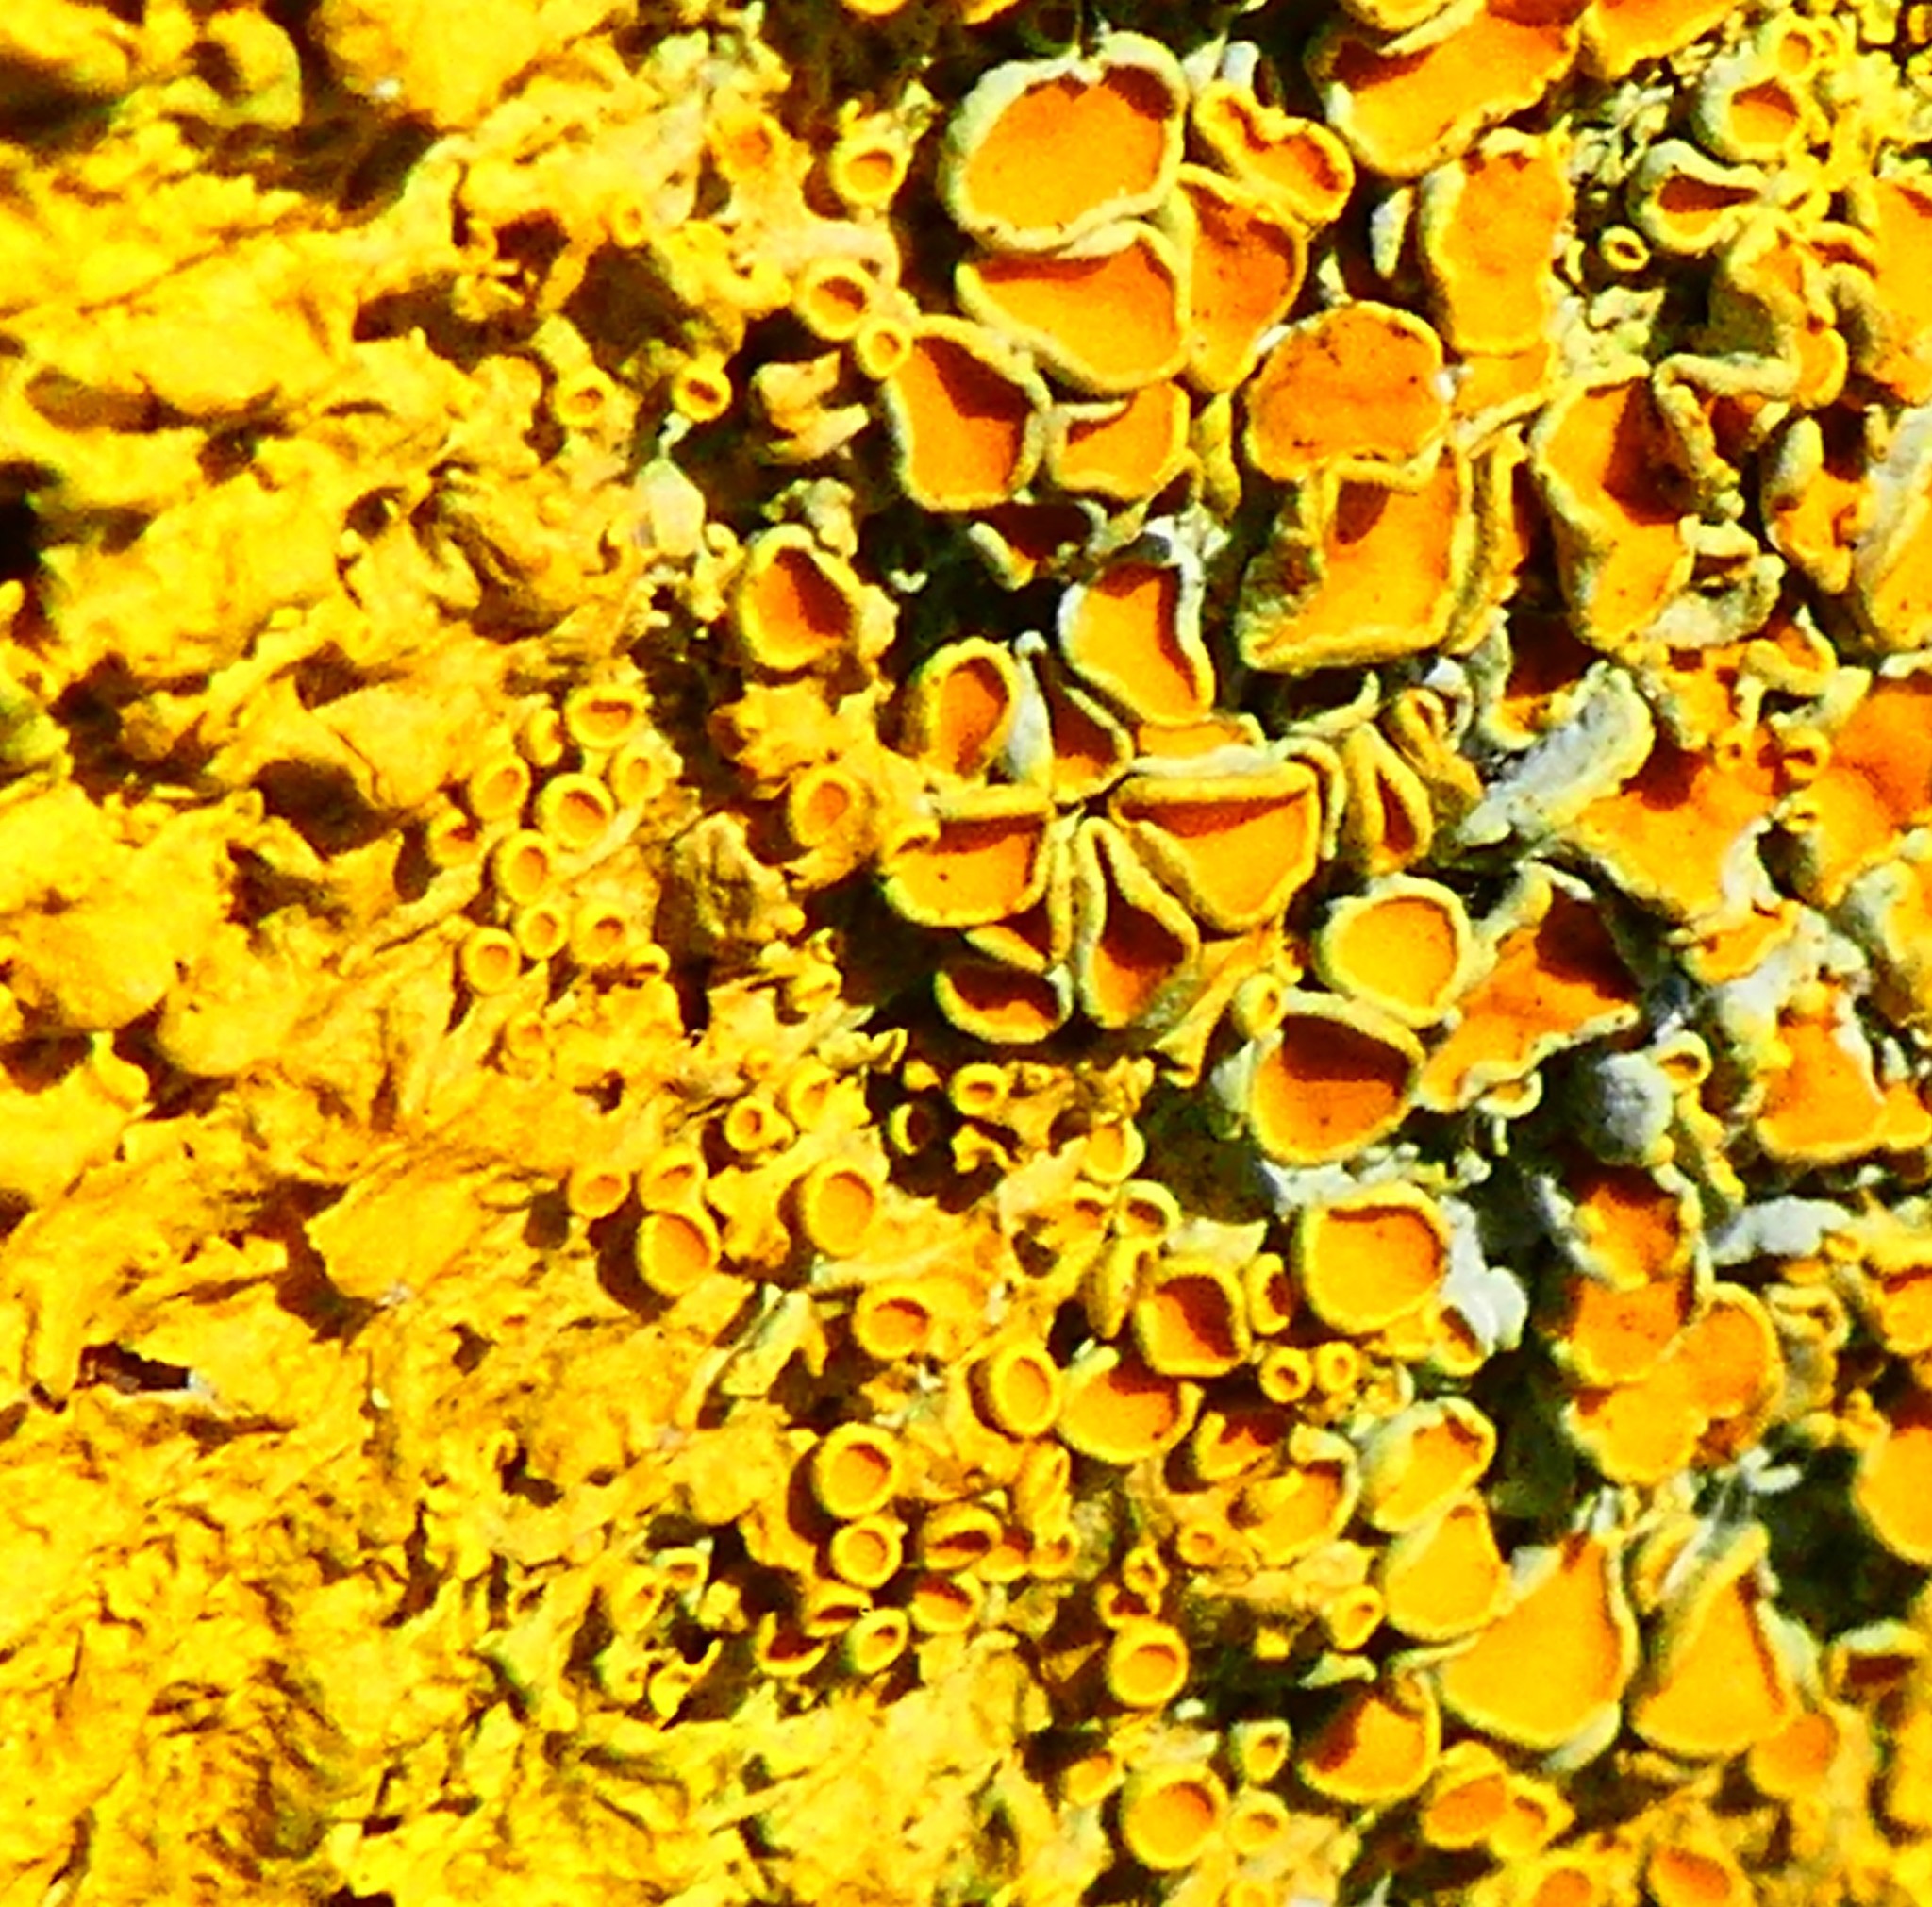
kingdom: Fungi
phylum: Ascomycota
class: Lecanoromycetes
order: Teloschistales
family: Teloschistaceae
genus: Xanthoria
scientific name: Xanthoria parietina
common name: Common orange lichen
